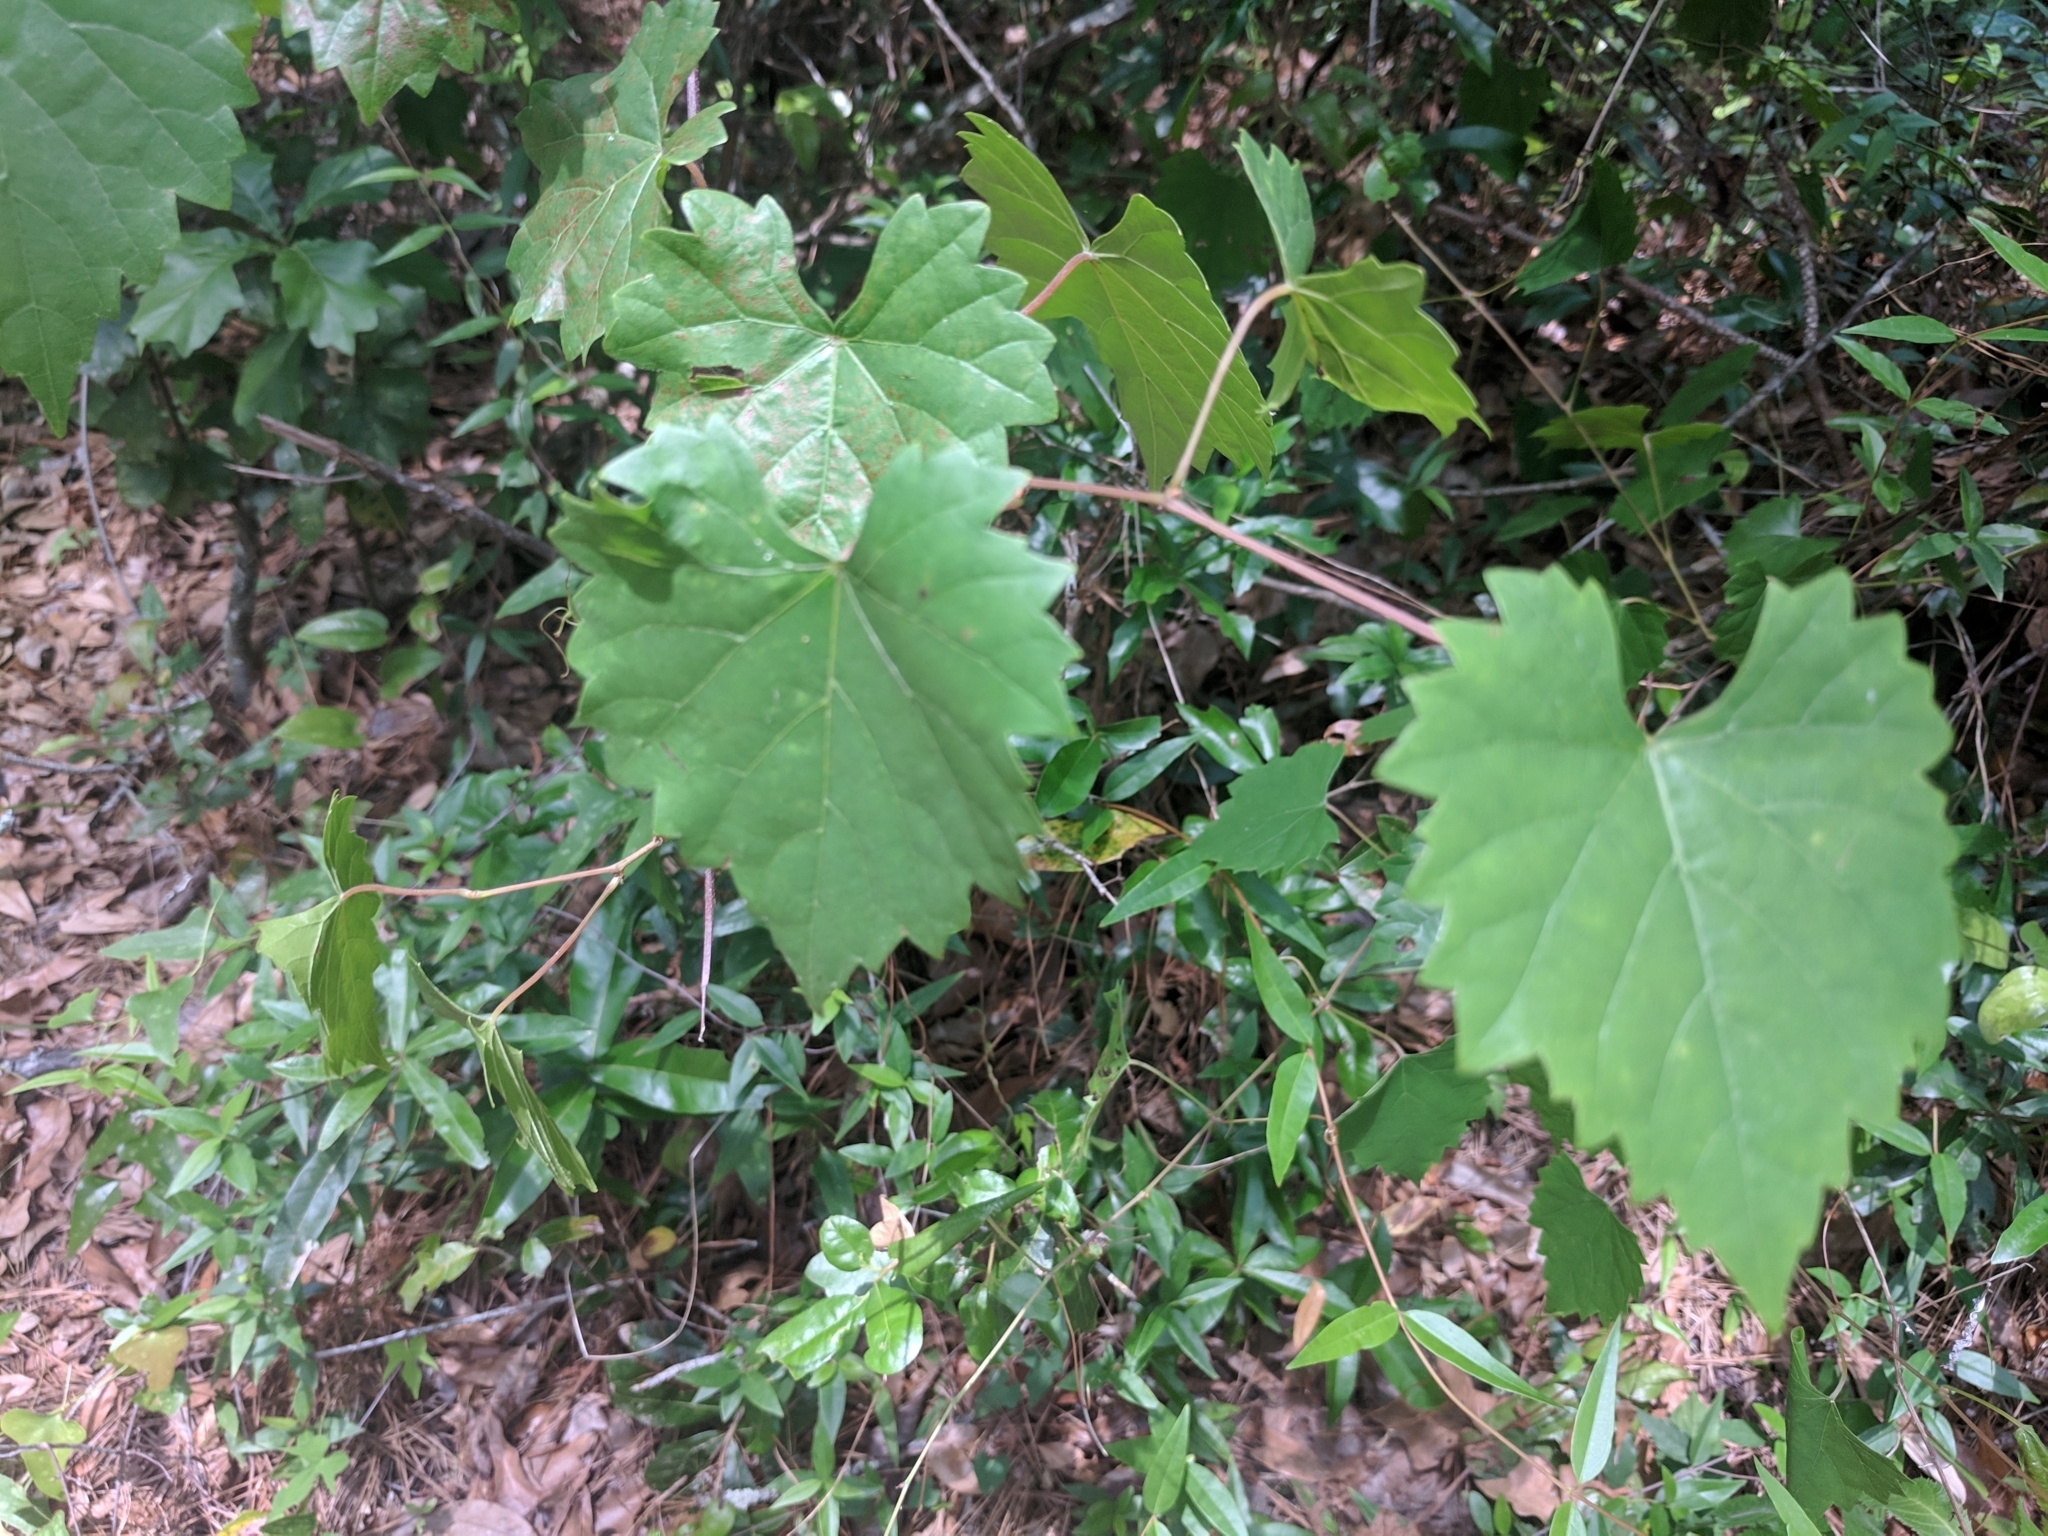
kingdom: Plantae
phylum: Tracheophyta
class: Magnoliopsida
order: Vitales
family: Vitaceae
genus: Vitis
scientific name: Vitis rotundifolia
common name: Muscadine grape
